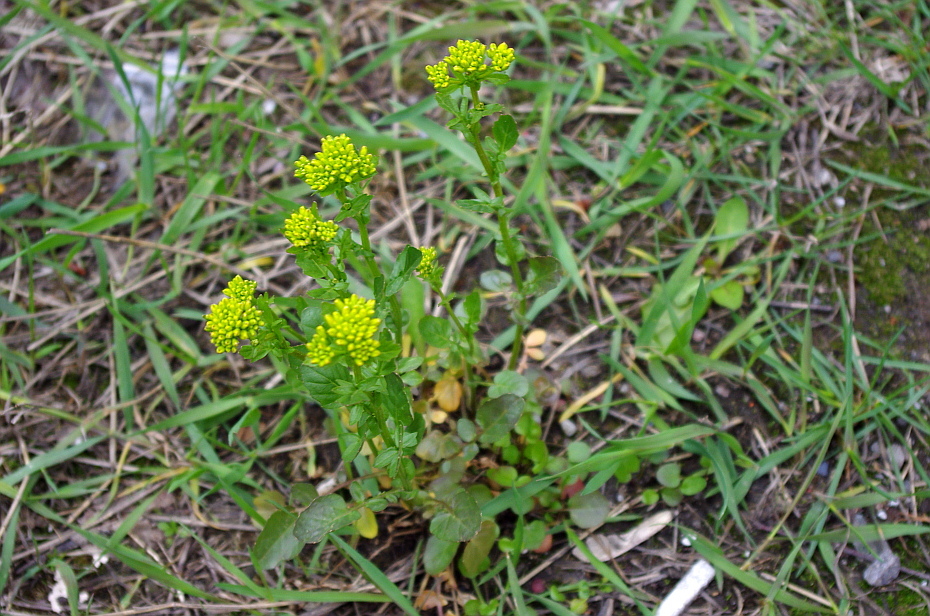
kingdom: Plantae
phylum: Tracheophyta
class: Magnoliopsida
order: Brassicales
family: Brassicaceae
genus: Barbarea
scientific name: Barbarea vulgaris
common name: Cressy-greens
